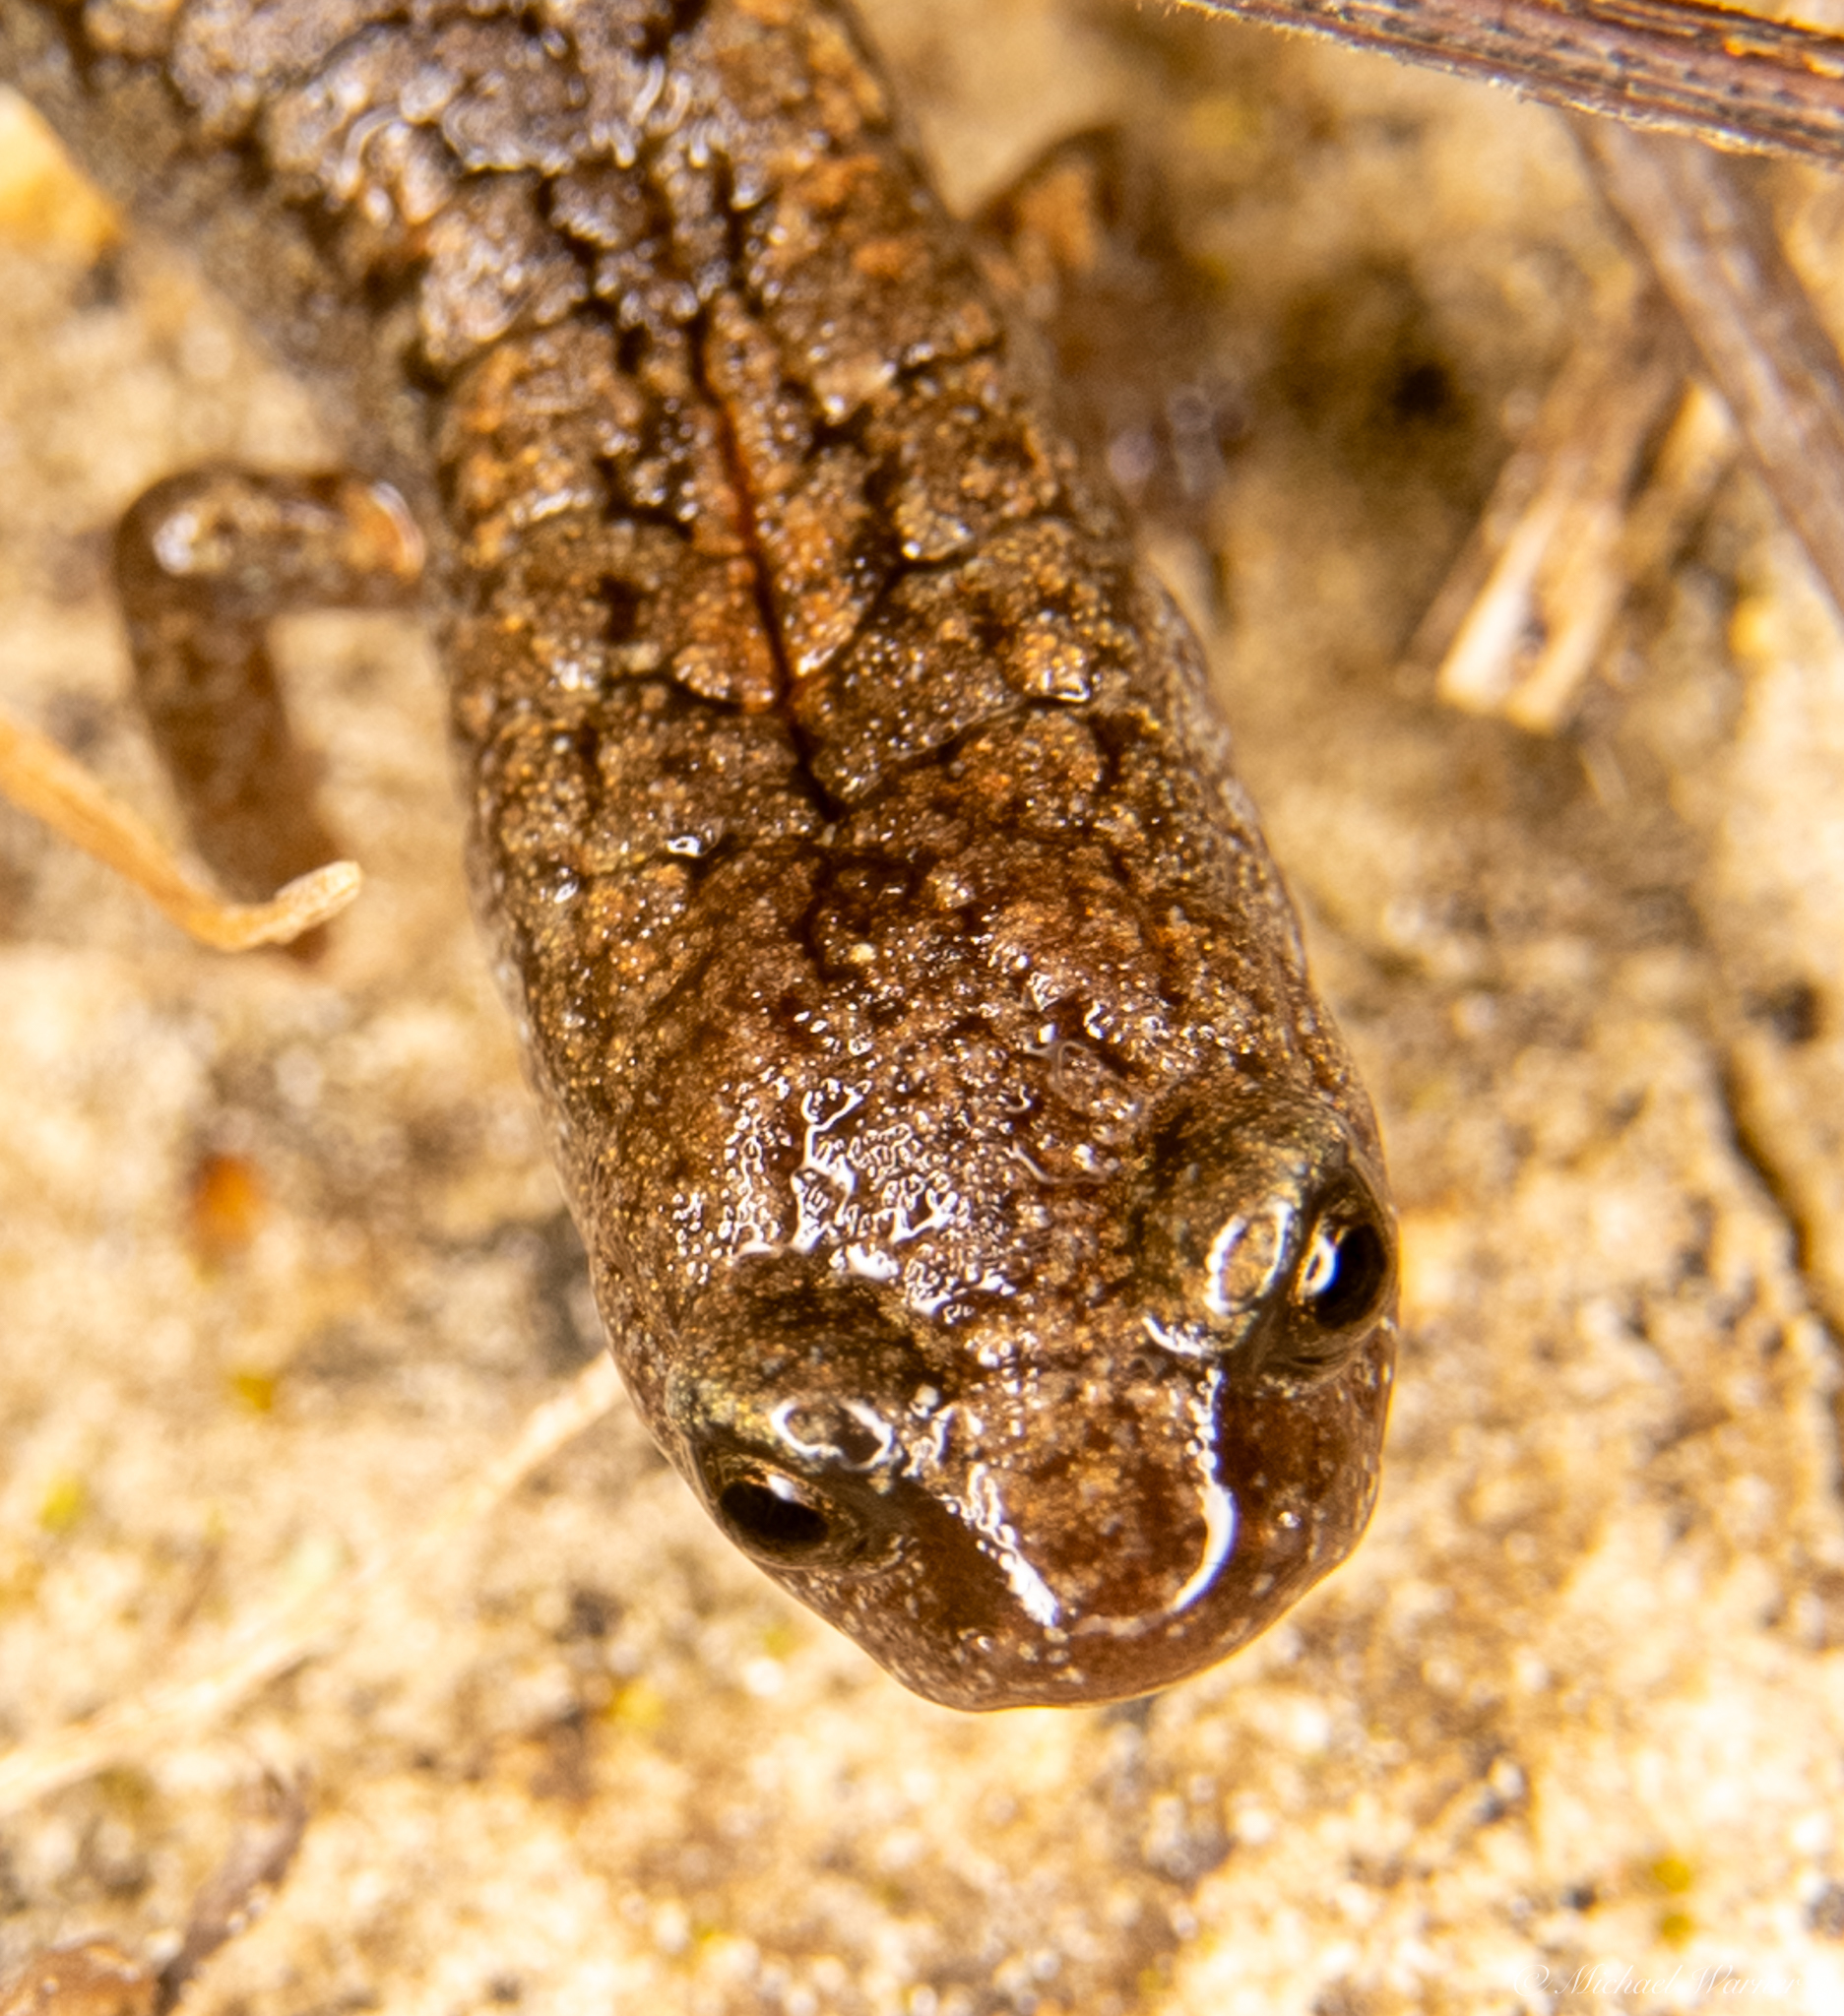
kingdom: Animalia
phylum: Chordata
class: Amphibia
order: Caudata
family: Plethodontidae
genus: Batrachoseps
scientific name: Batrachoseps attenuatus
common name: California slender salamander
